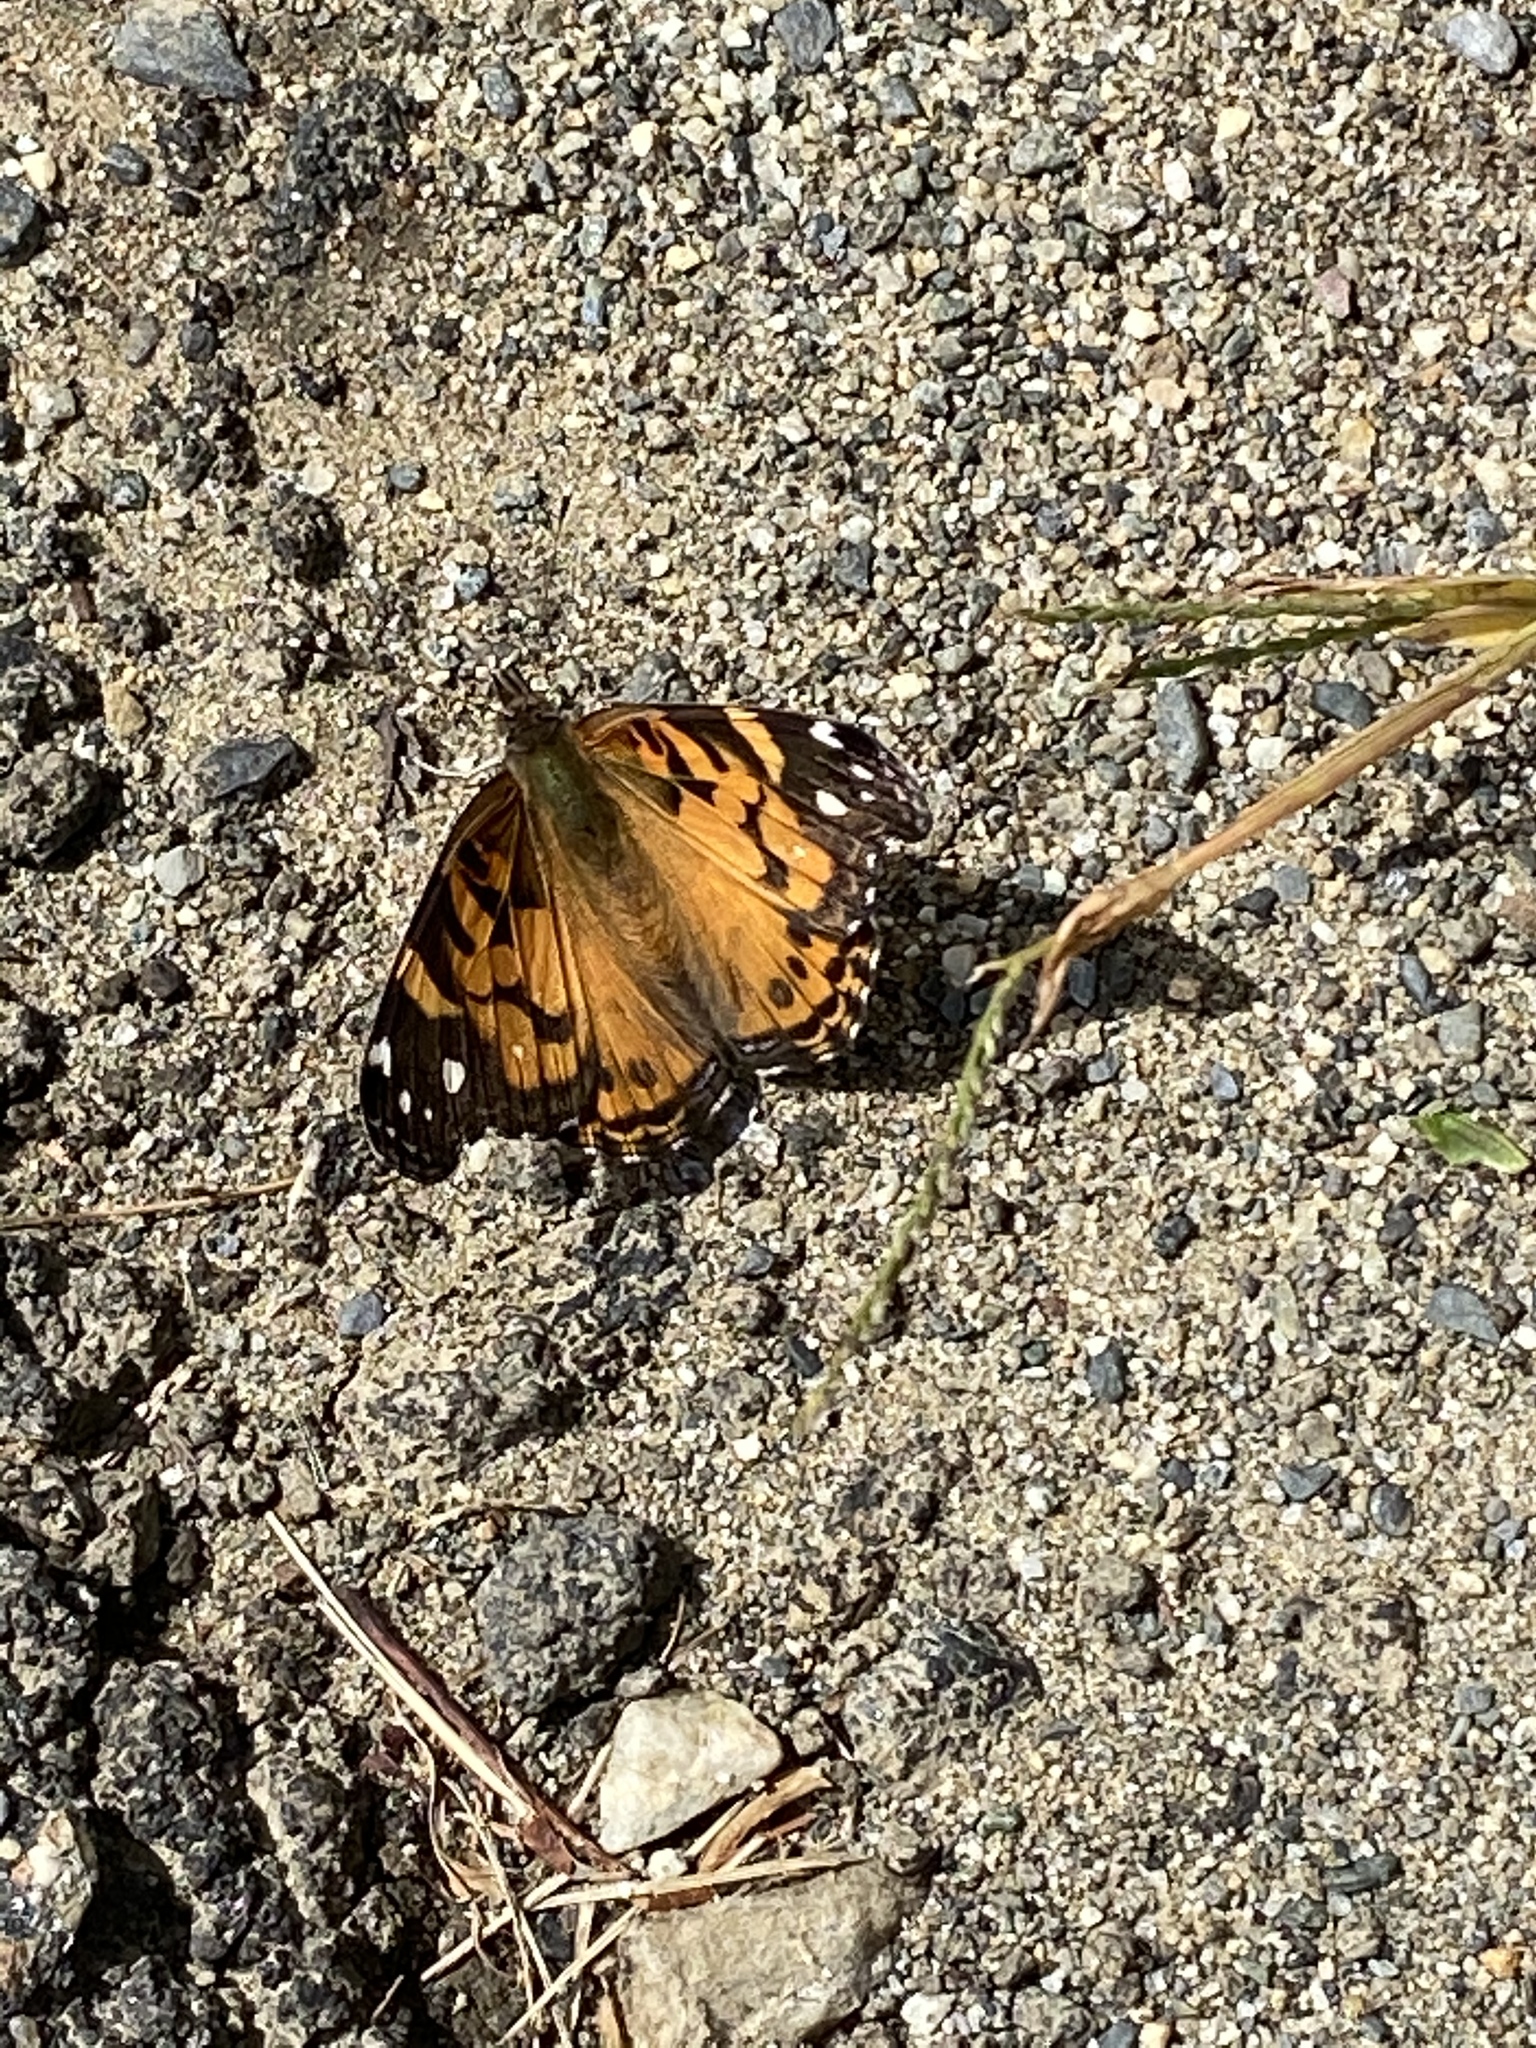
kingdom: Animalia
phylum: Arthropoda
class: Insecta
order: Lepidoptera
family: Nymphalidae
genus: Vanessa
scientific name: Vanessa virginiensis
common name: American lady
